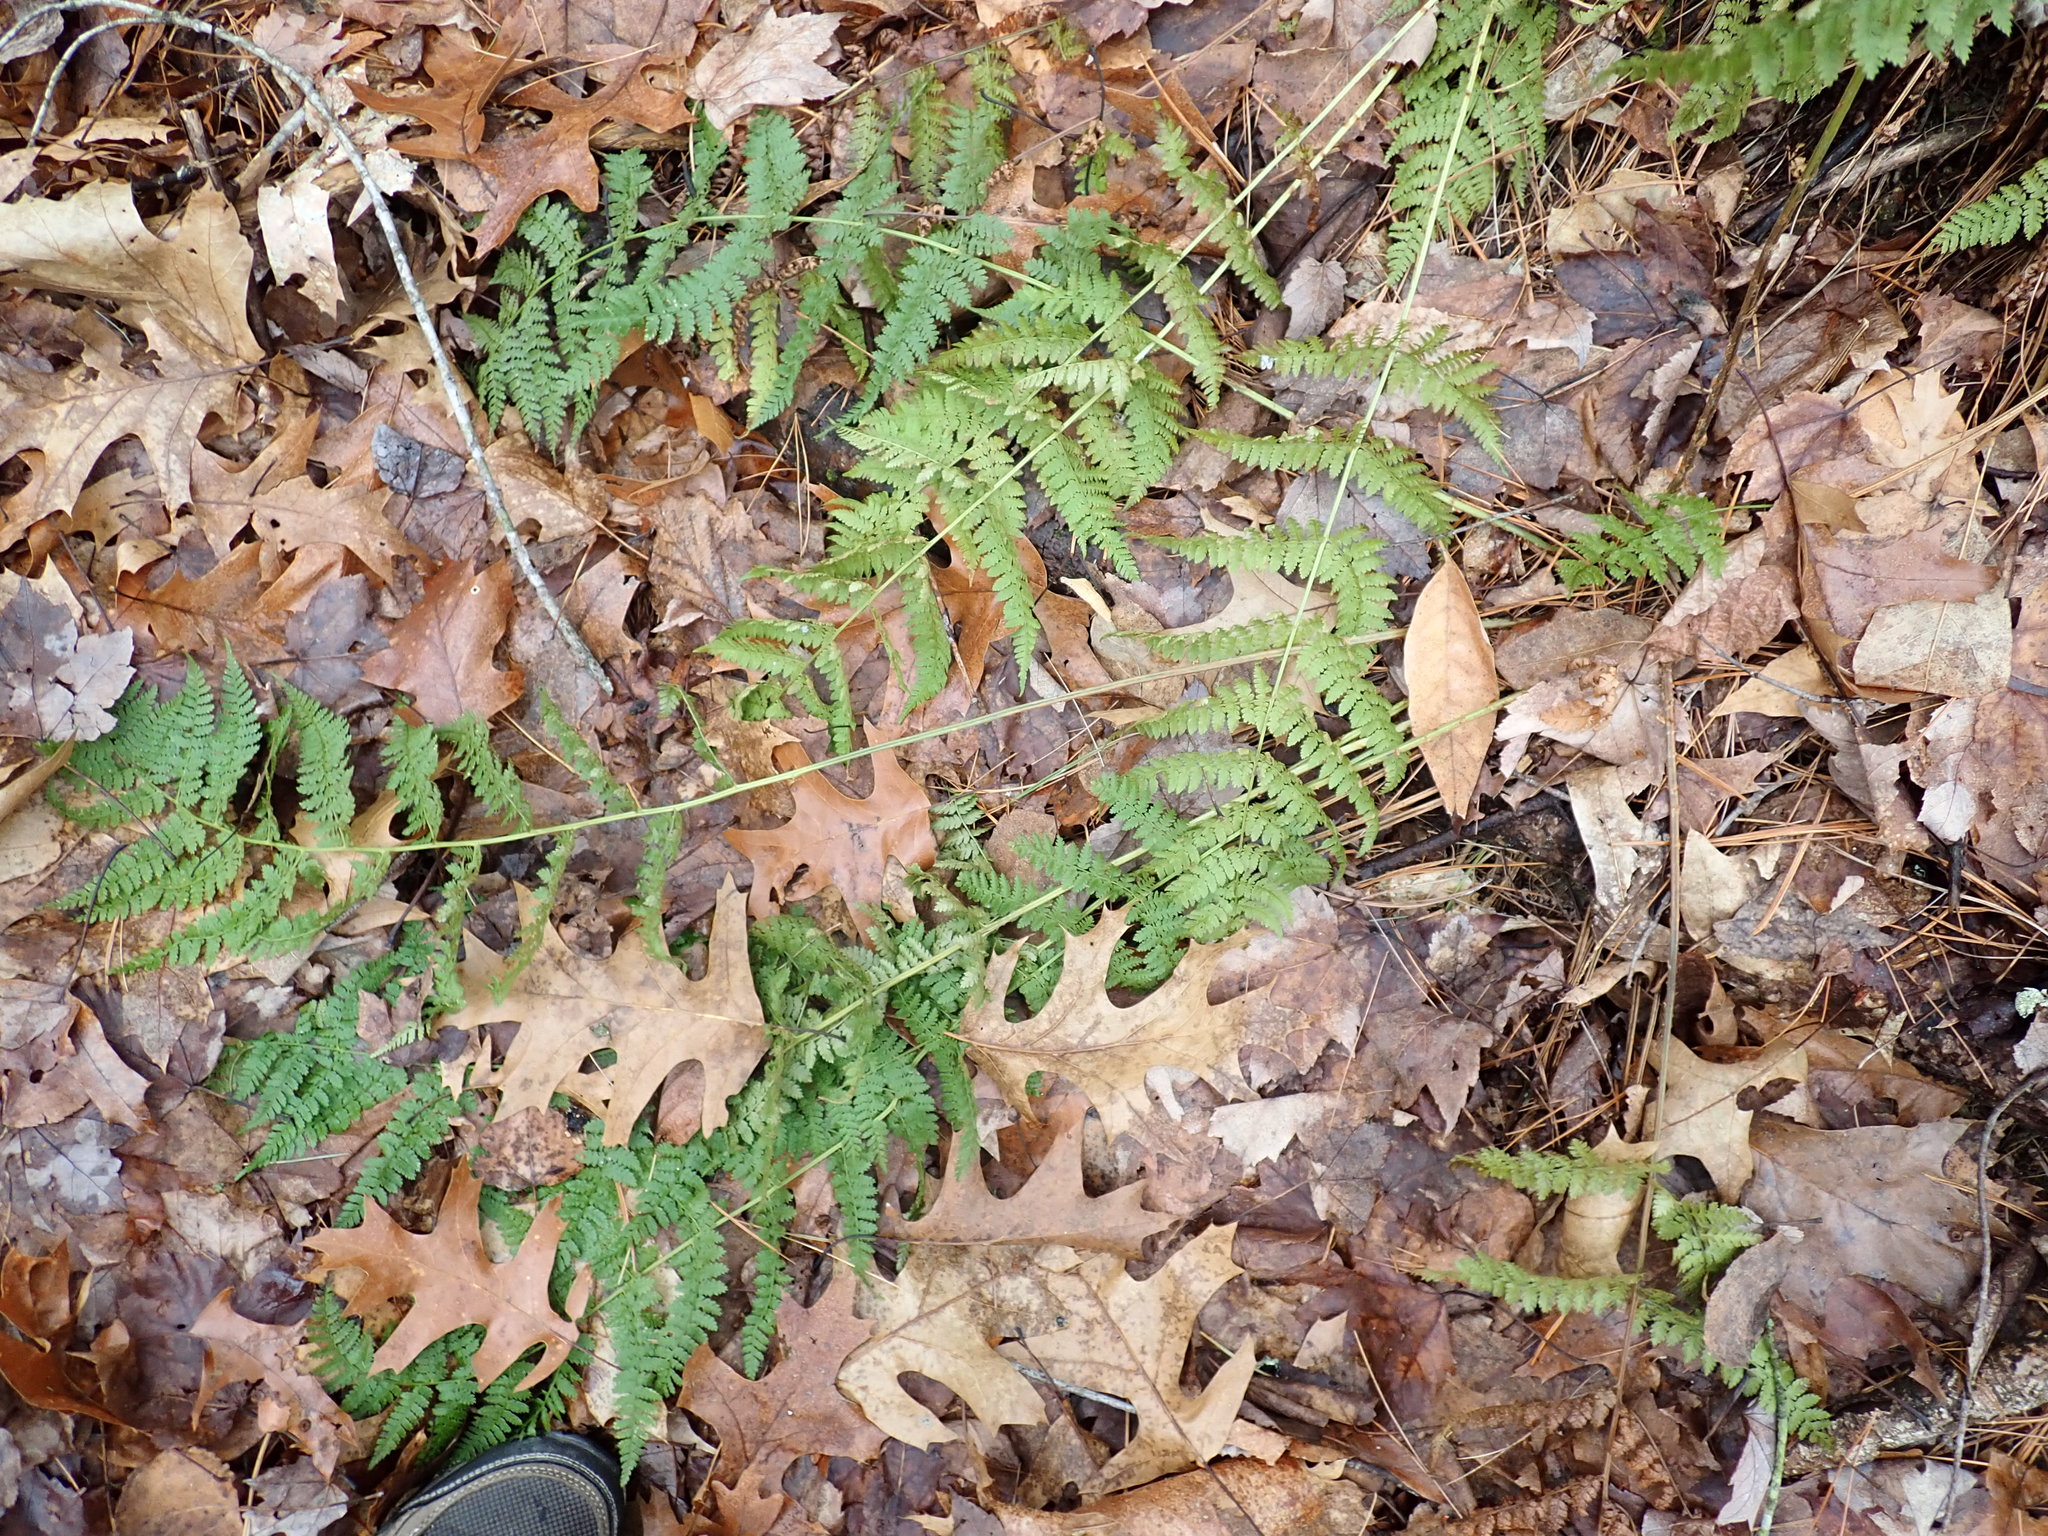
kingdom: Plantae
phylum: Tracheophyta
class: Polypodiopsida
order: Polypodiales
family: Dryopteridaceae
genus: Dryopteris
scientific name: Dryopteris intermedia
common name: Evergreen wood fern
